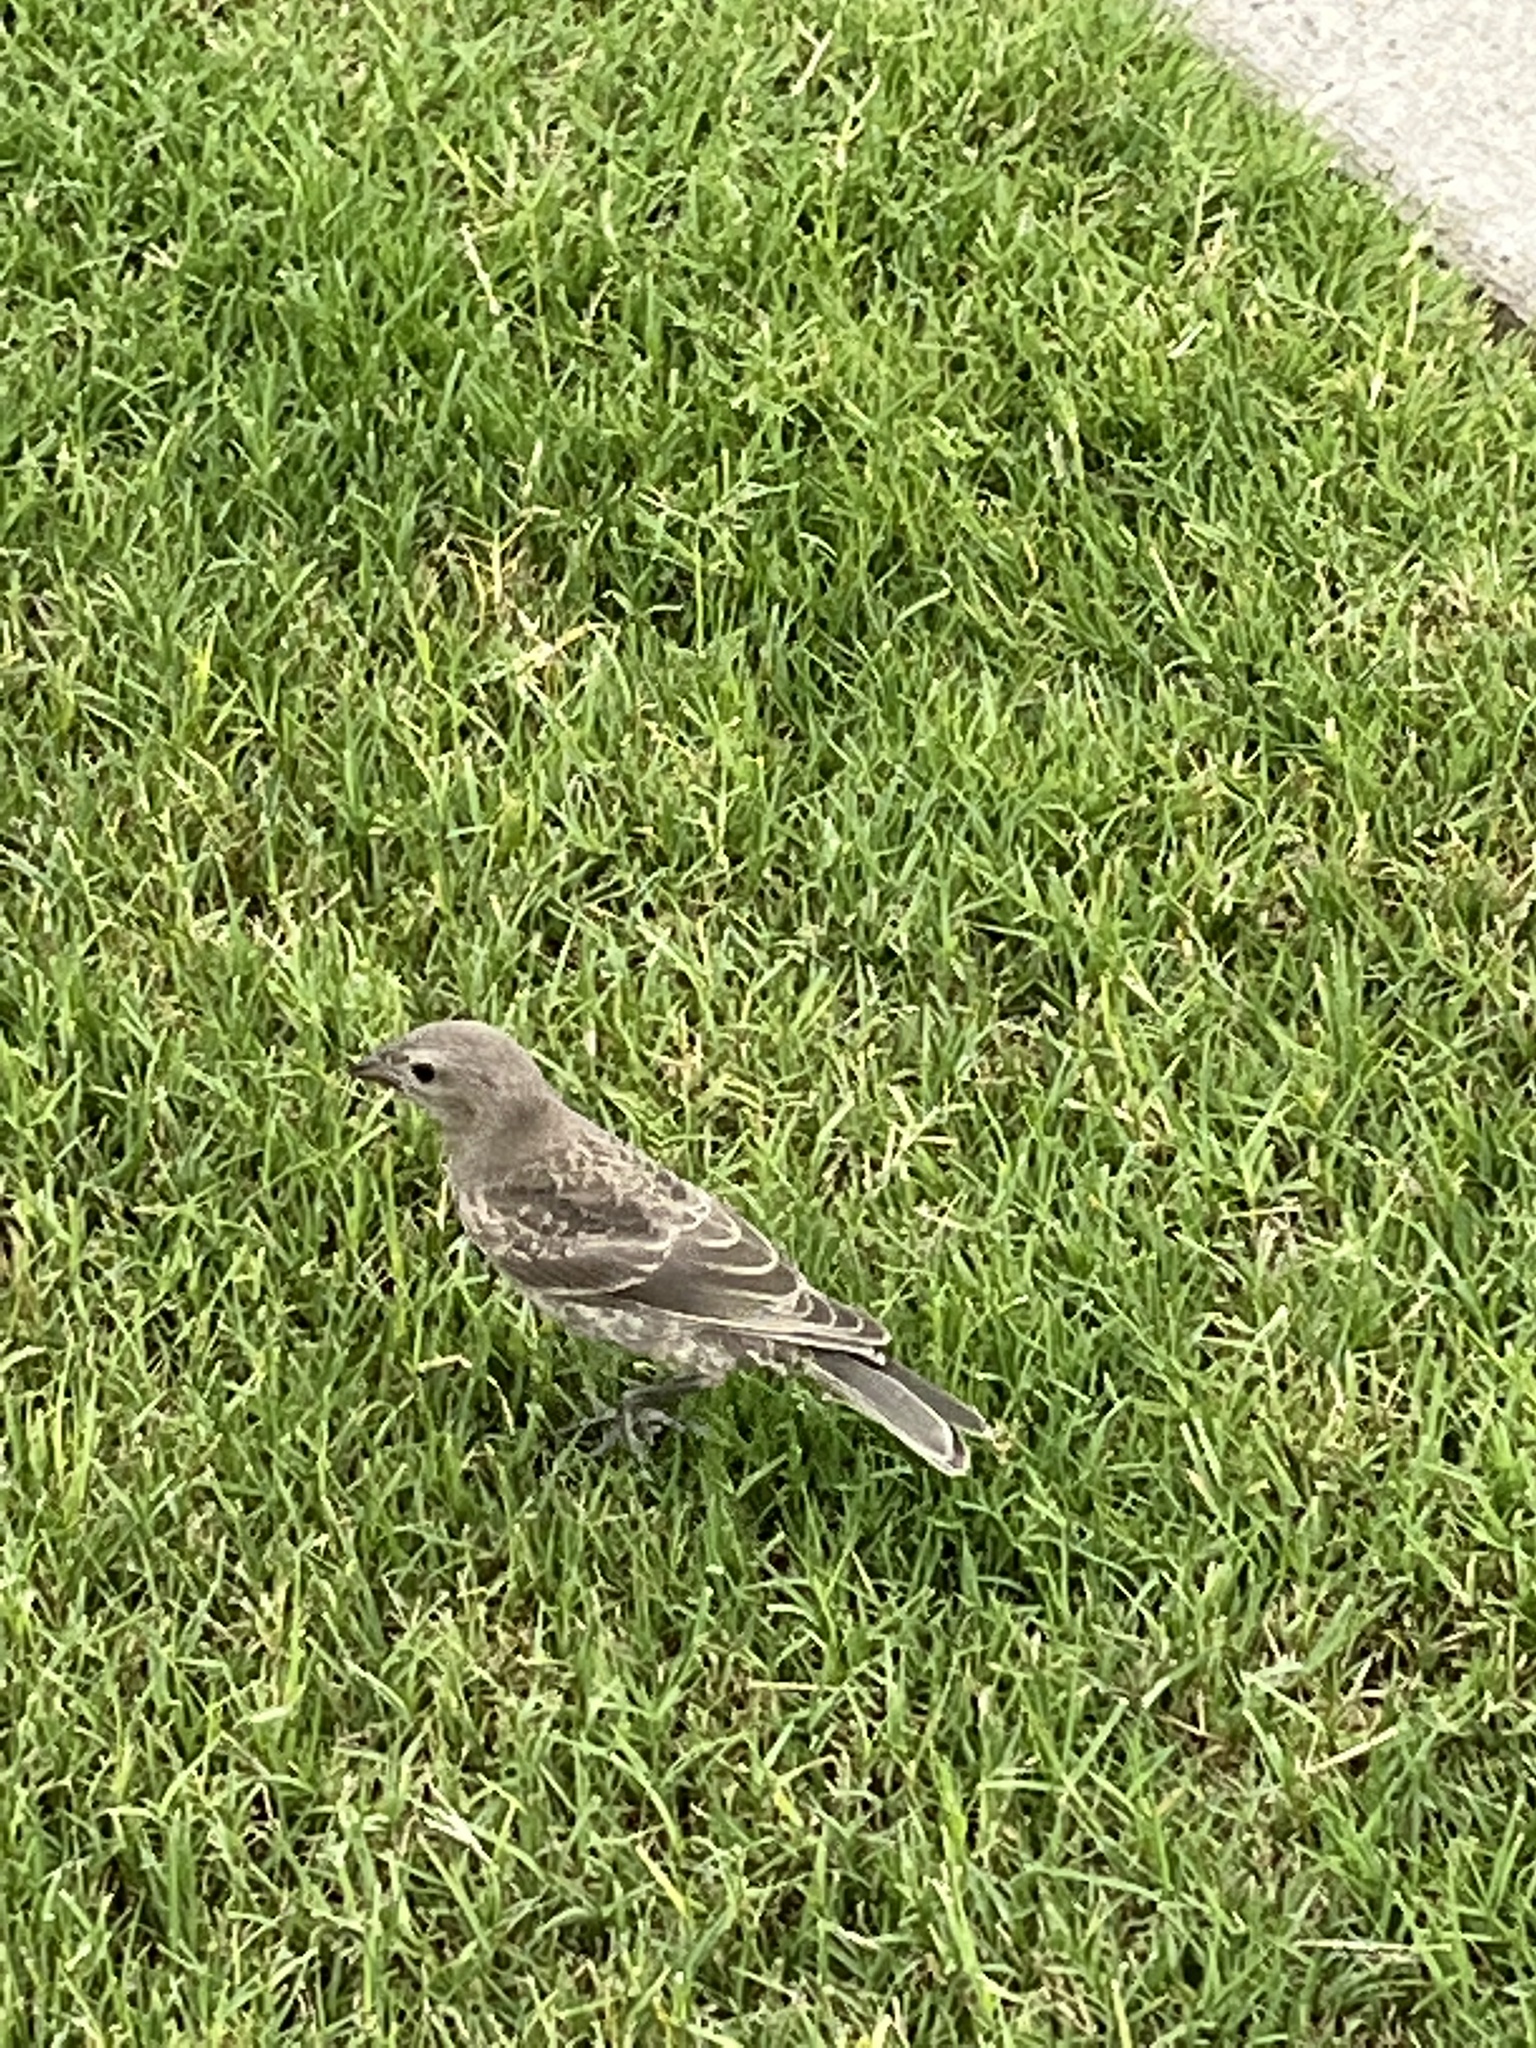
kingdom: Animalia
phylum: Chordata
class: Aves
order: Passeriformes
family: Icteridae
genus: Molothrus
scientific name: Molothrus ater
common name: Brown-headed cowbird
